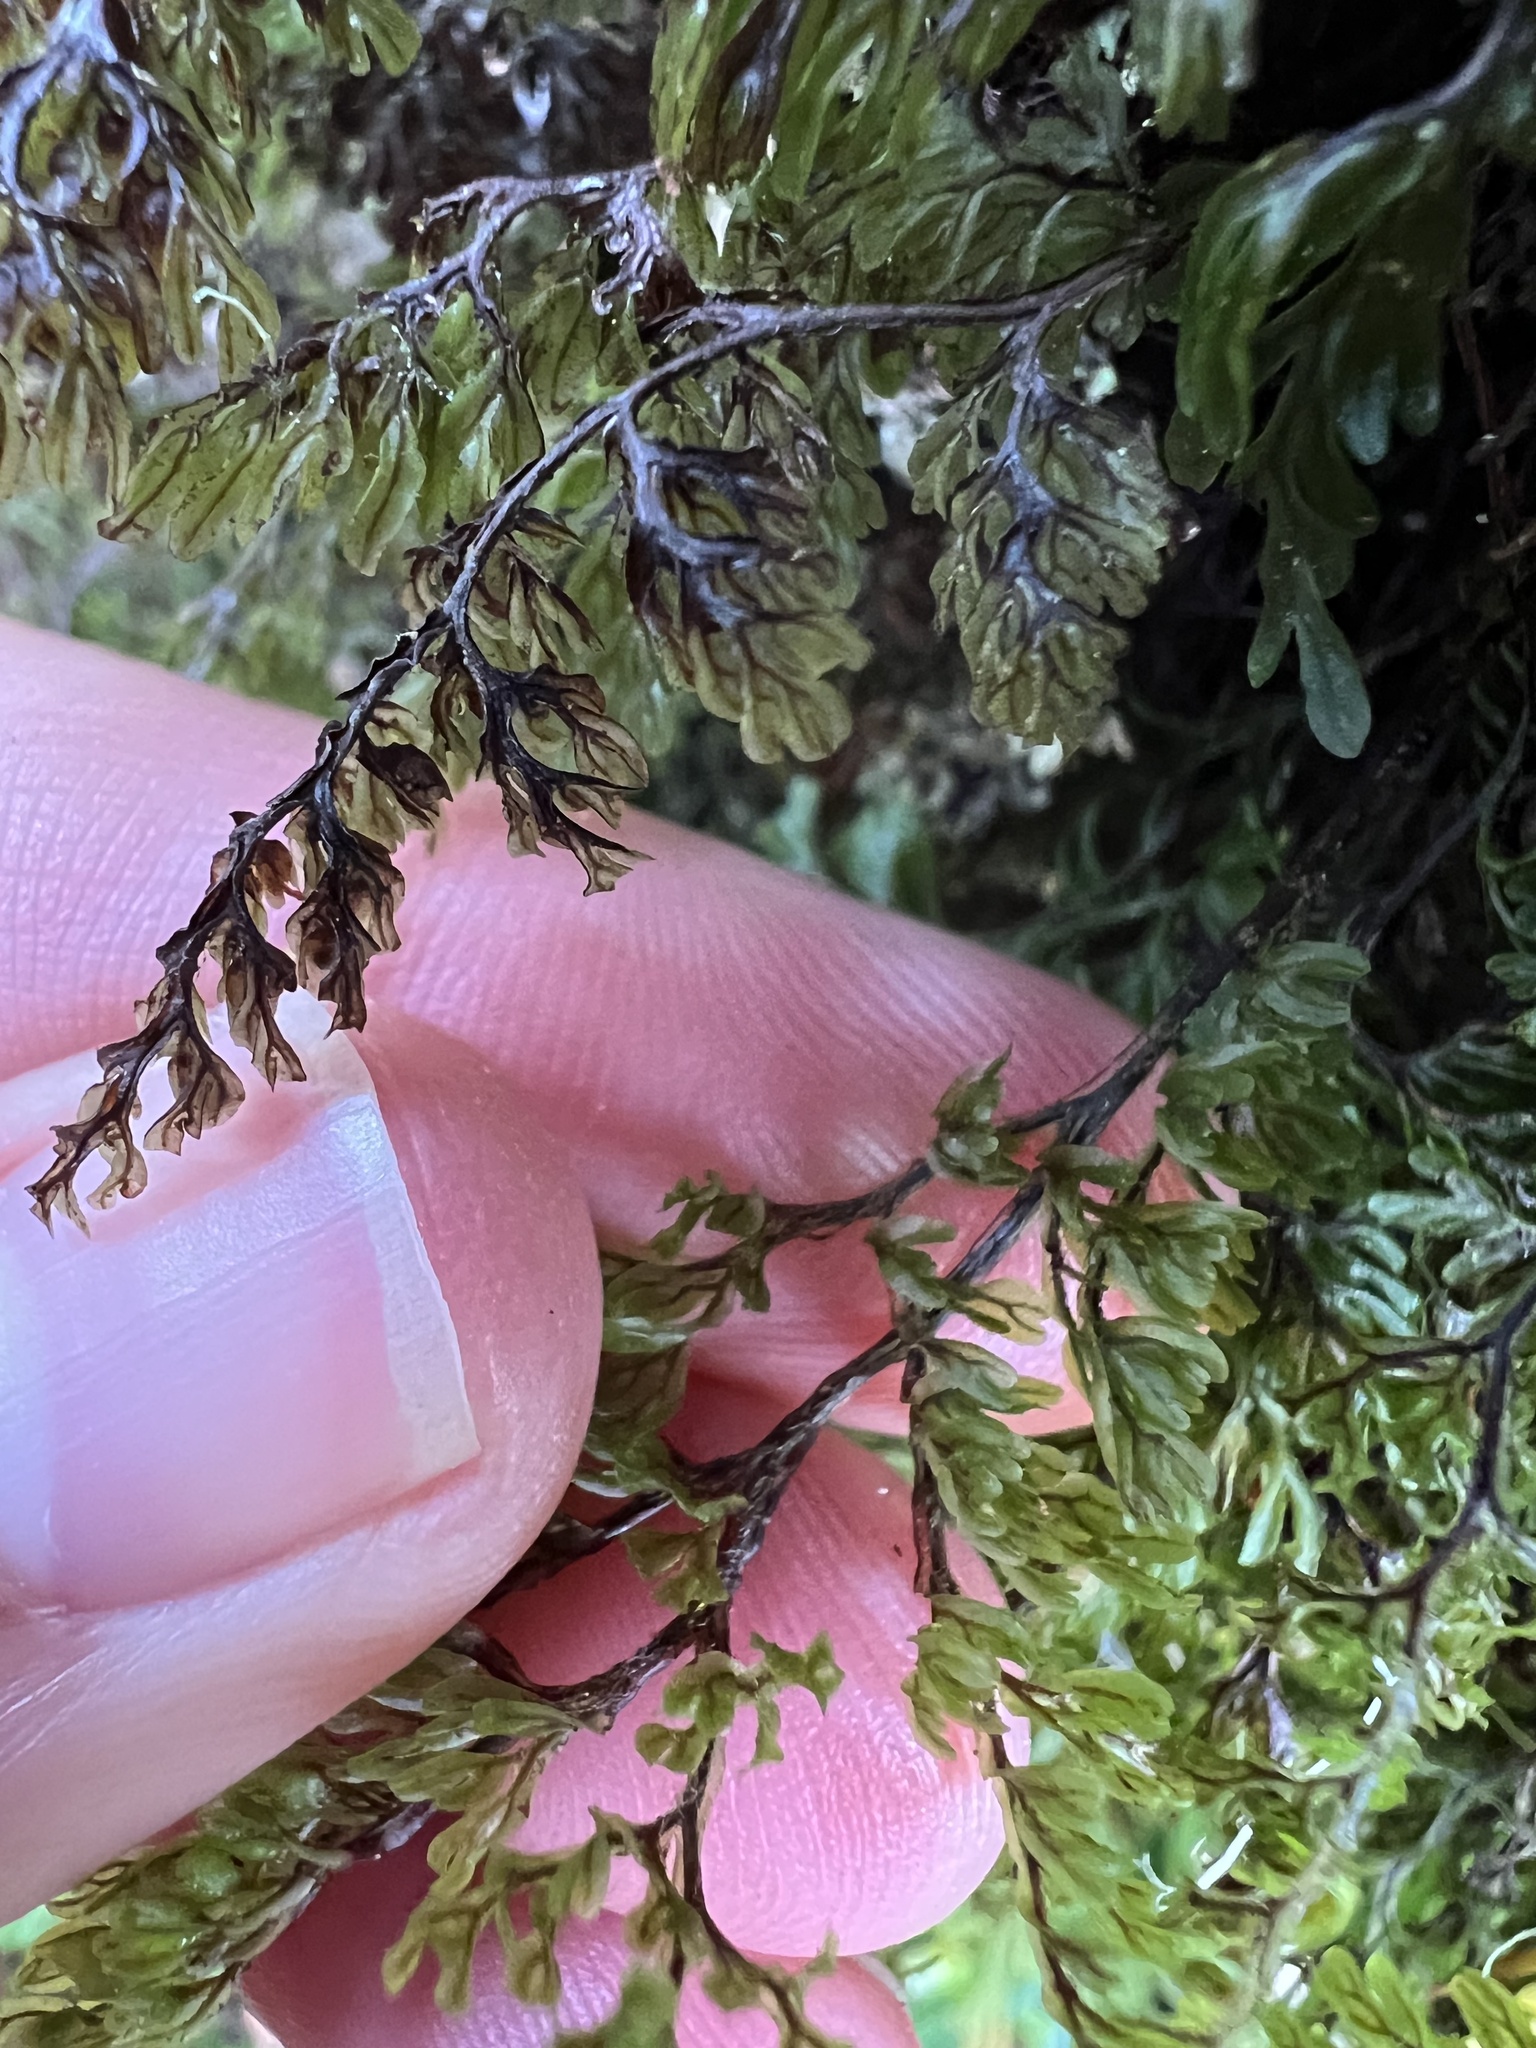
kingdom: Plantae
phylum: Tracheophyta
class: Polypodiopsida
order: Hymenophyllales
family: Hymenophyllaceae
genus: Hymenophyllum
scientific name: Hymenophyllum villosum
